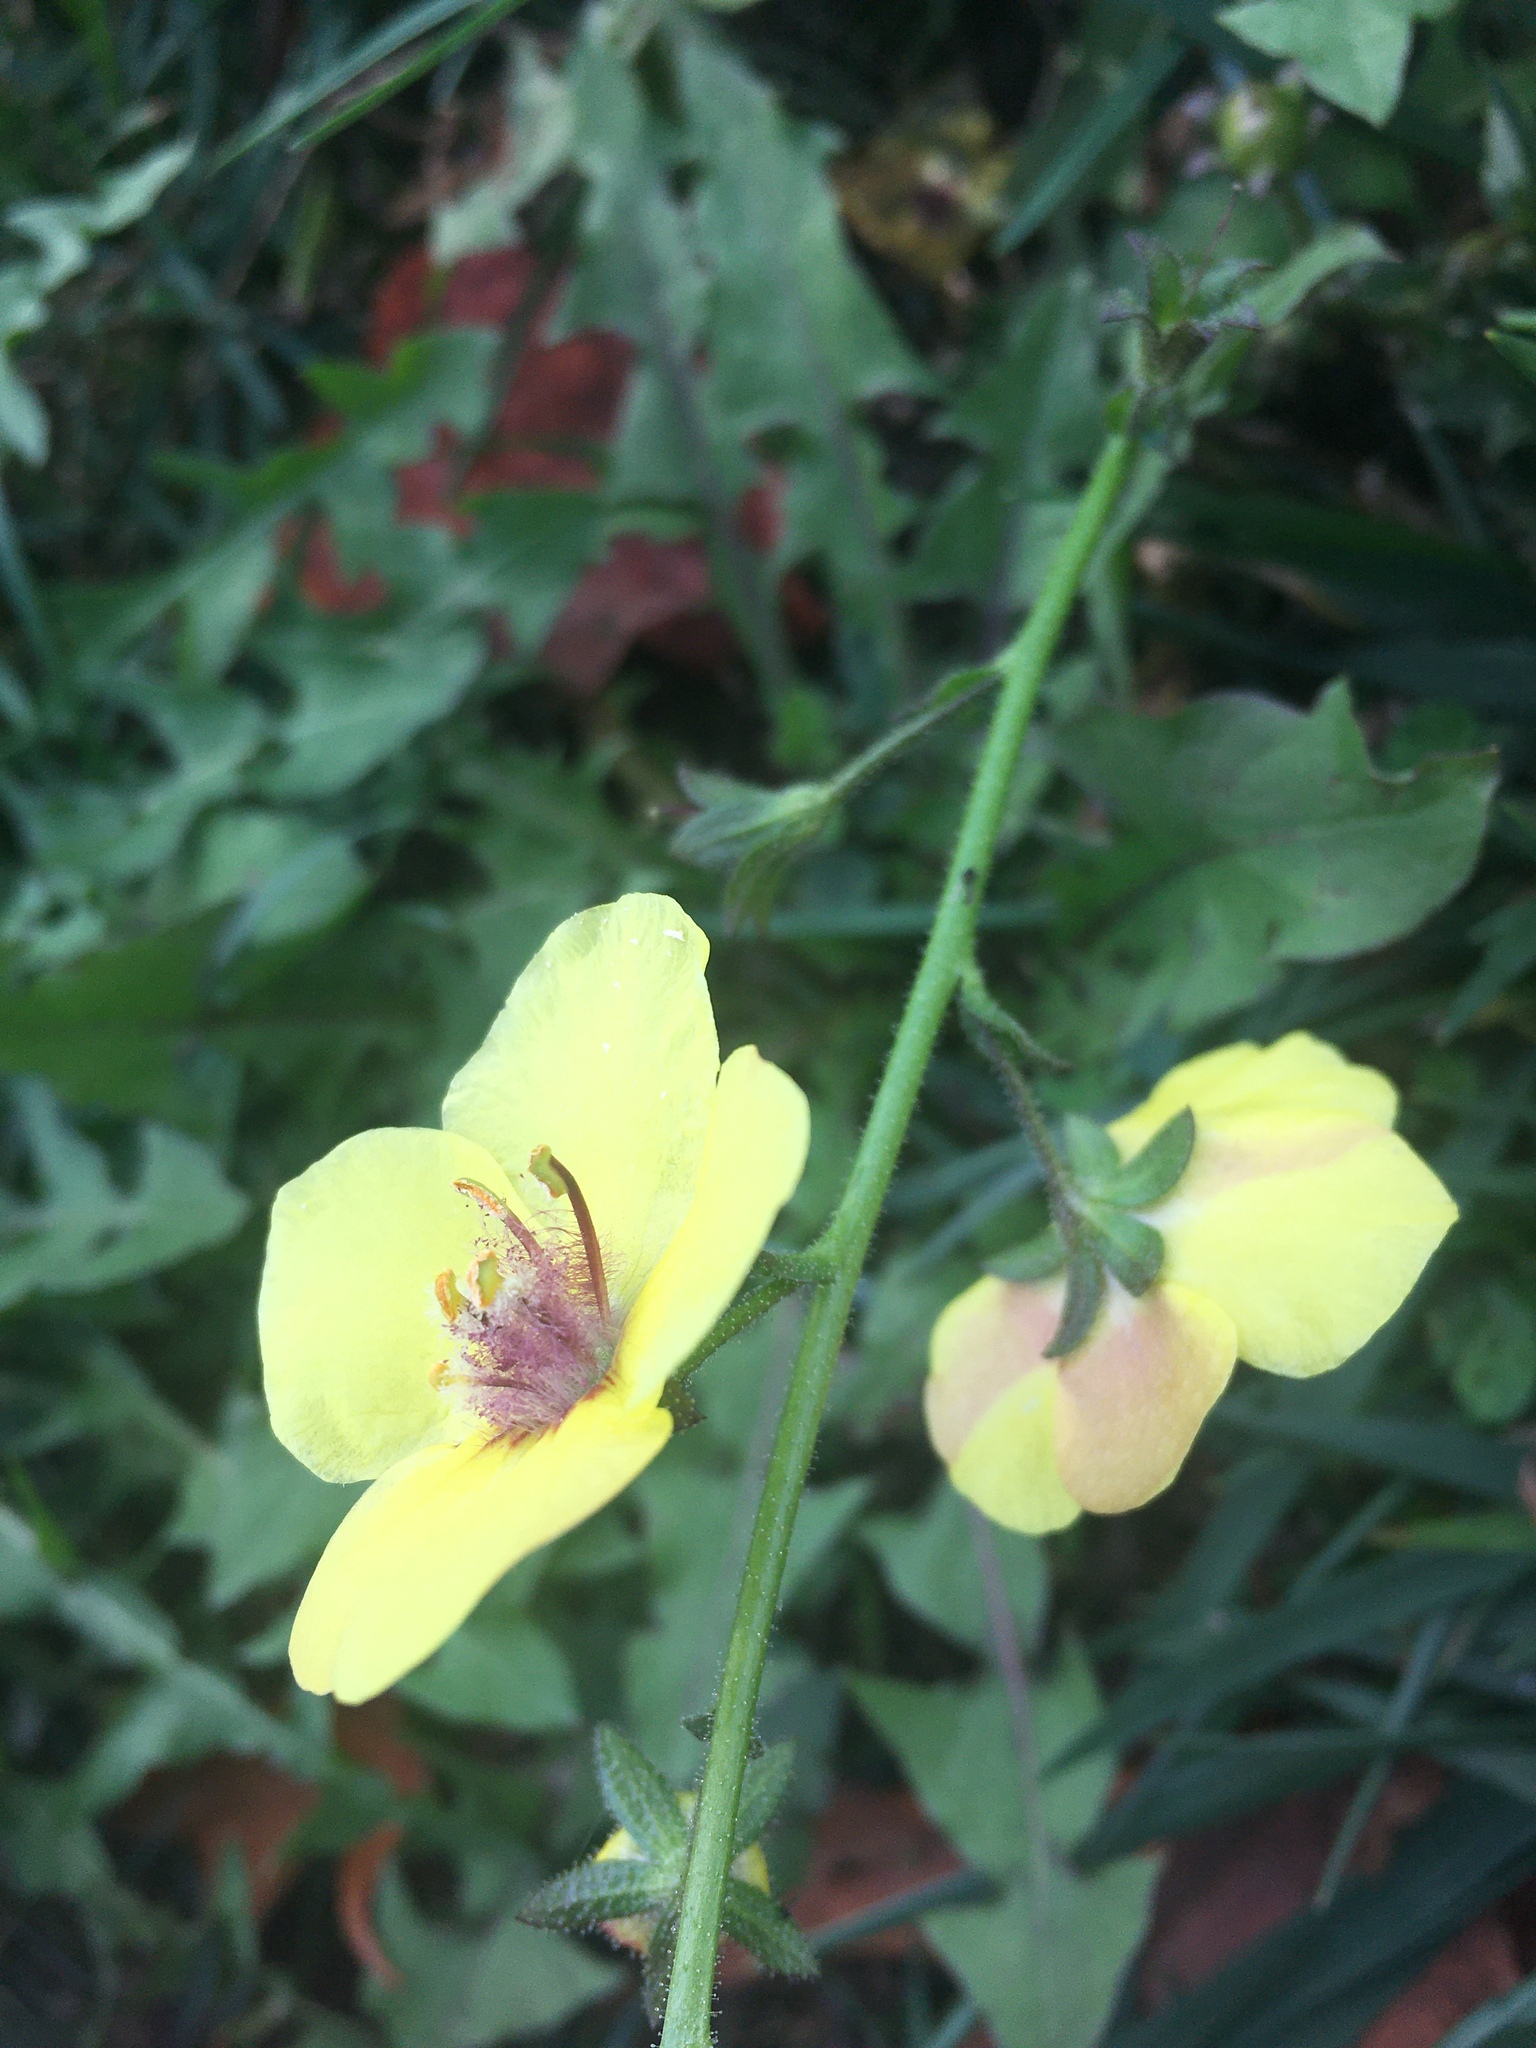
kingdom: Plantae
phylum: Tracheophyta
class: Magnoliopsida
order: Lamiales
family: Scrophulariaceae
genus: Verbascum
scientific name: Verbascum blattaria
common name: Moth mullein
